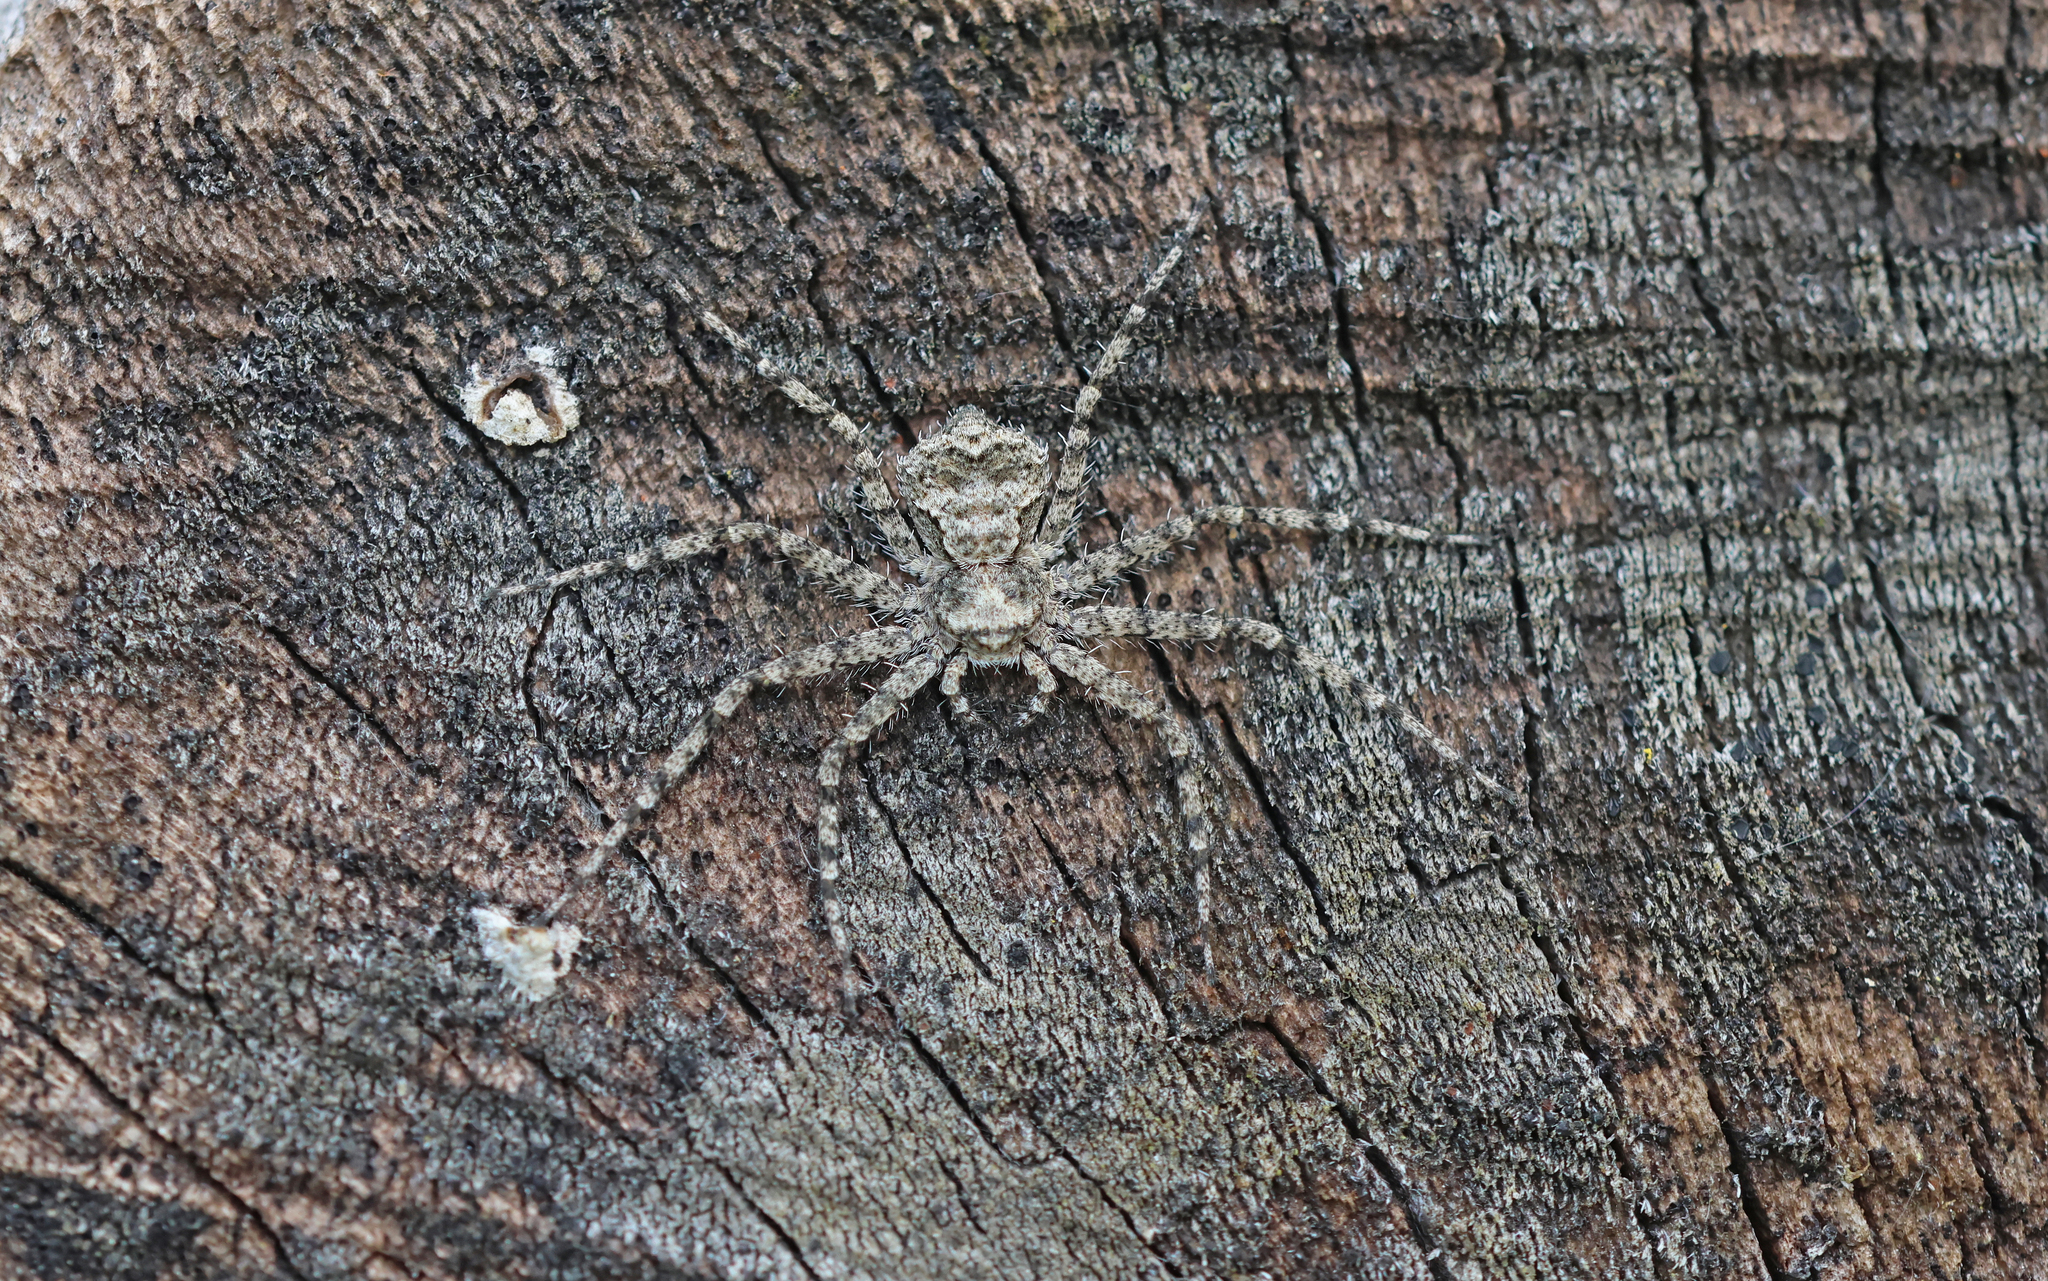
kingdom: Animalia
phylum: Arthropoda
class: Arachnida
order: Araneae
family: Philodromidae
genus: Philodromus
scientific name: Philodromus poecilus
